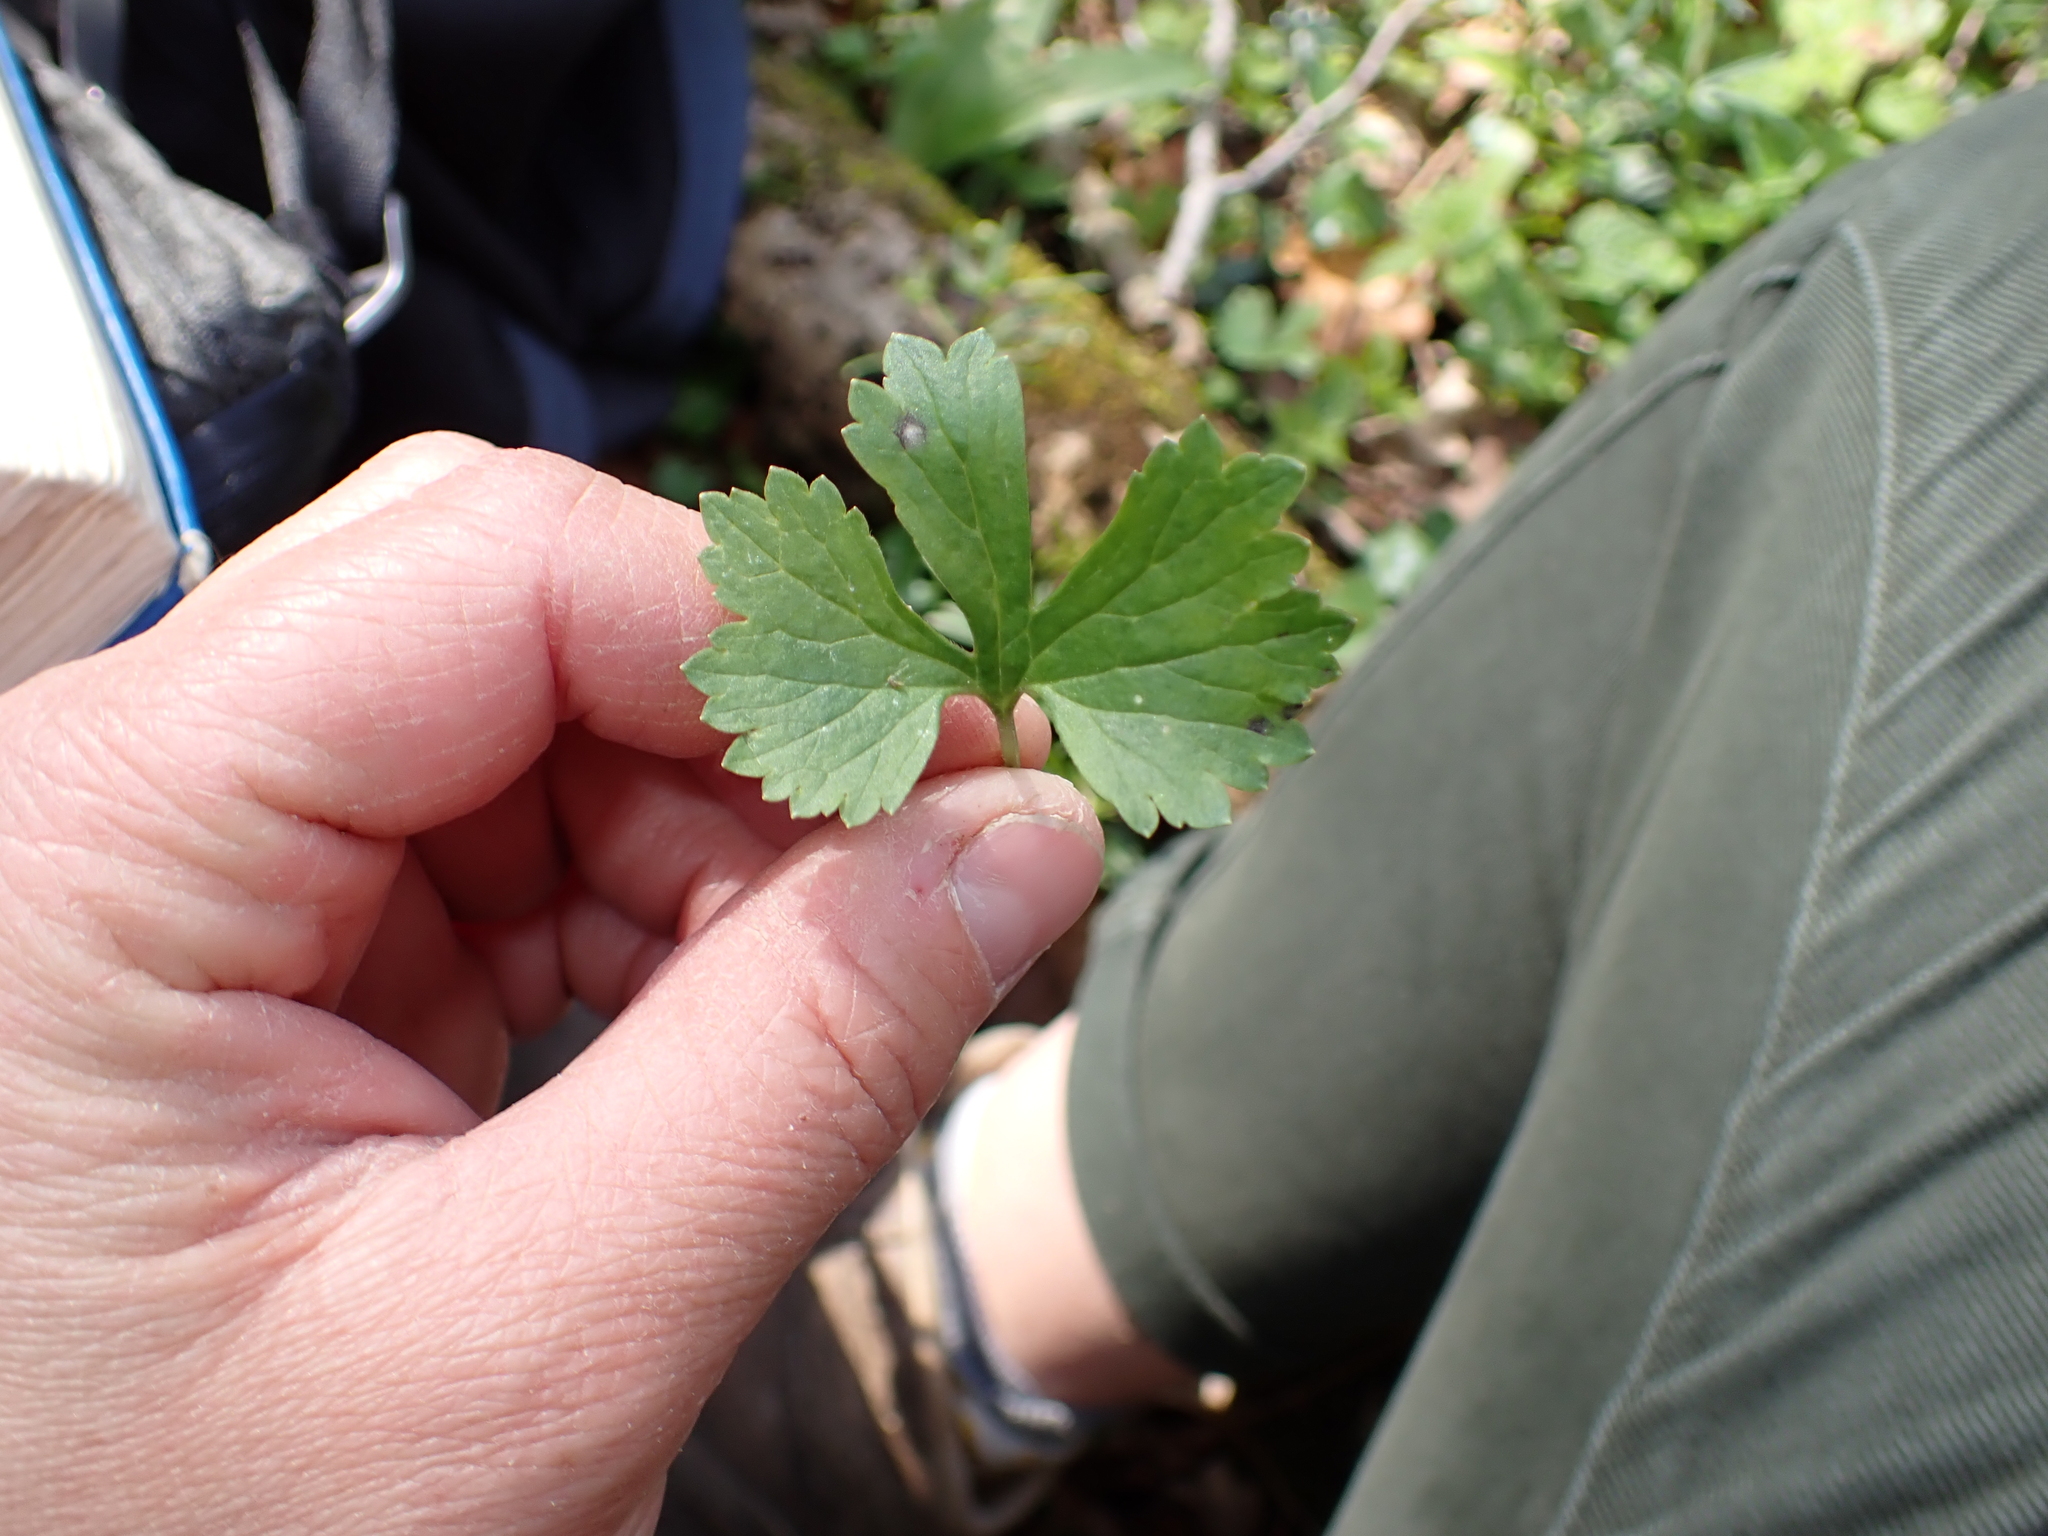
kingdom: Plantae
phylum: Tracheophyta
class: Magnoliopsida
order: Ranunculales
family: Ranunculaceae
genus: Ranunculus
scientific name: Ranunculus auricomus
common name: Goldilocks buttercup
